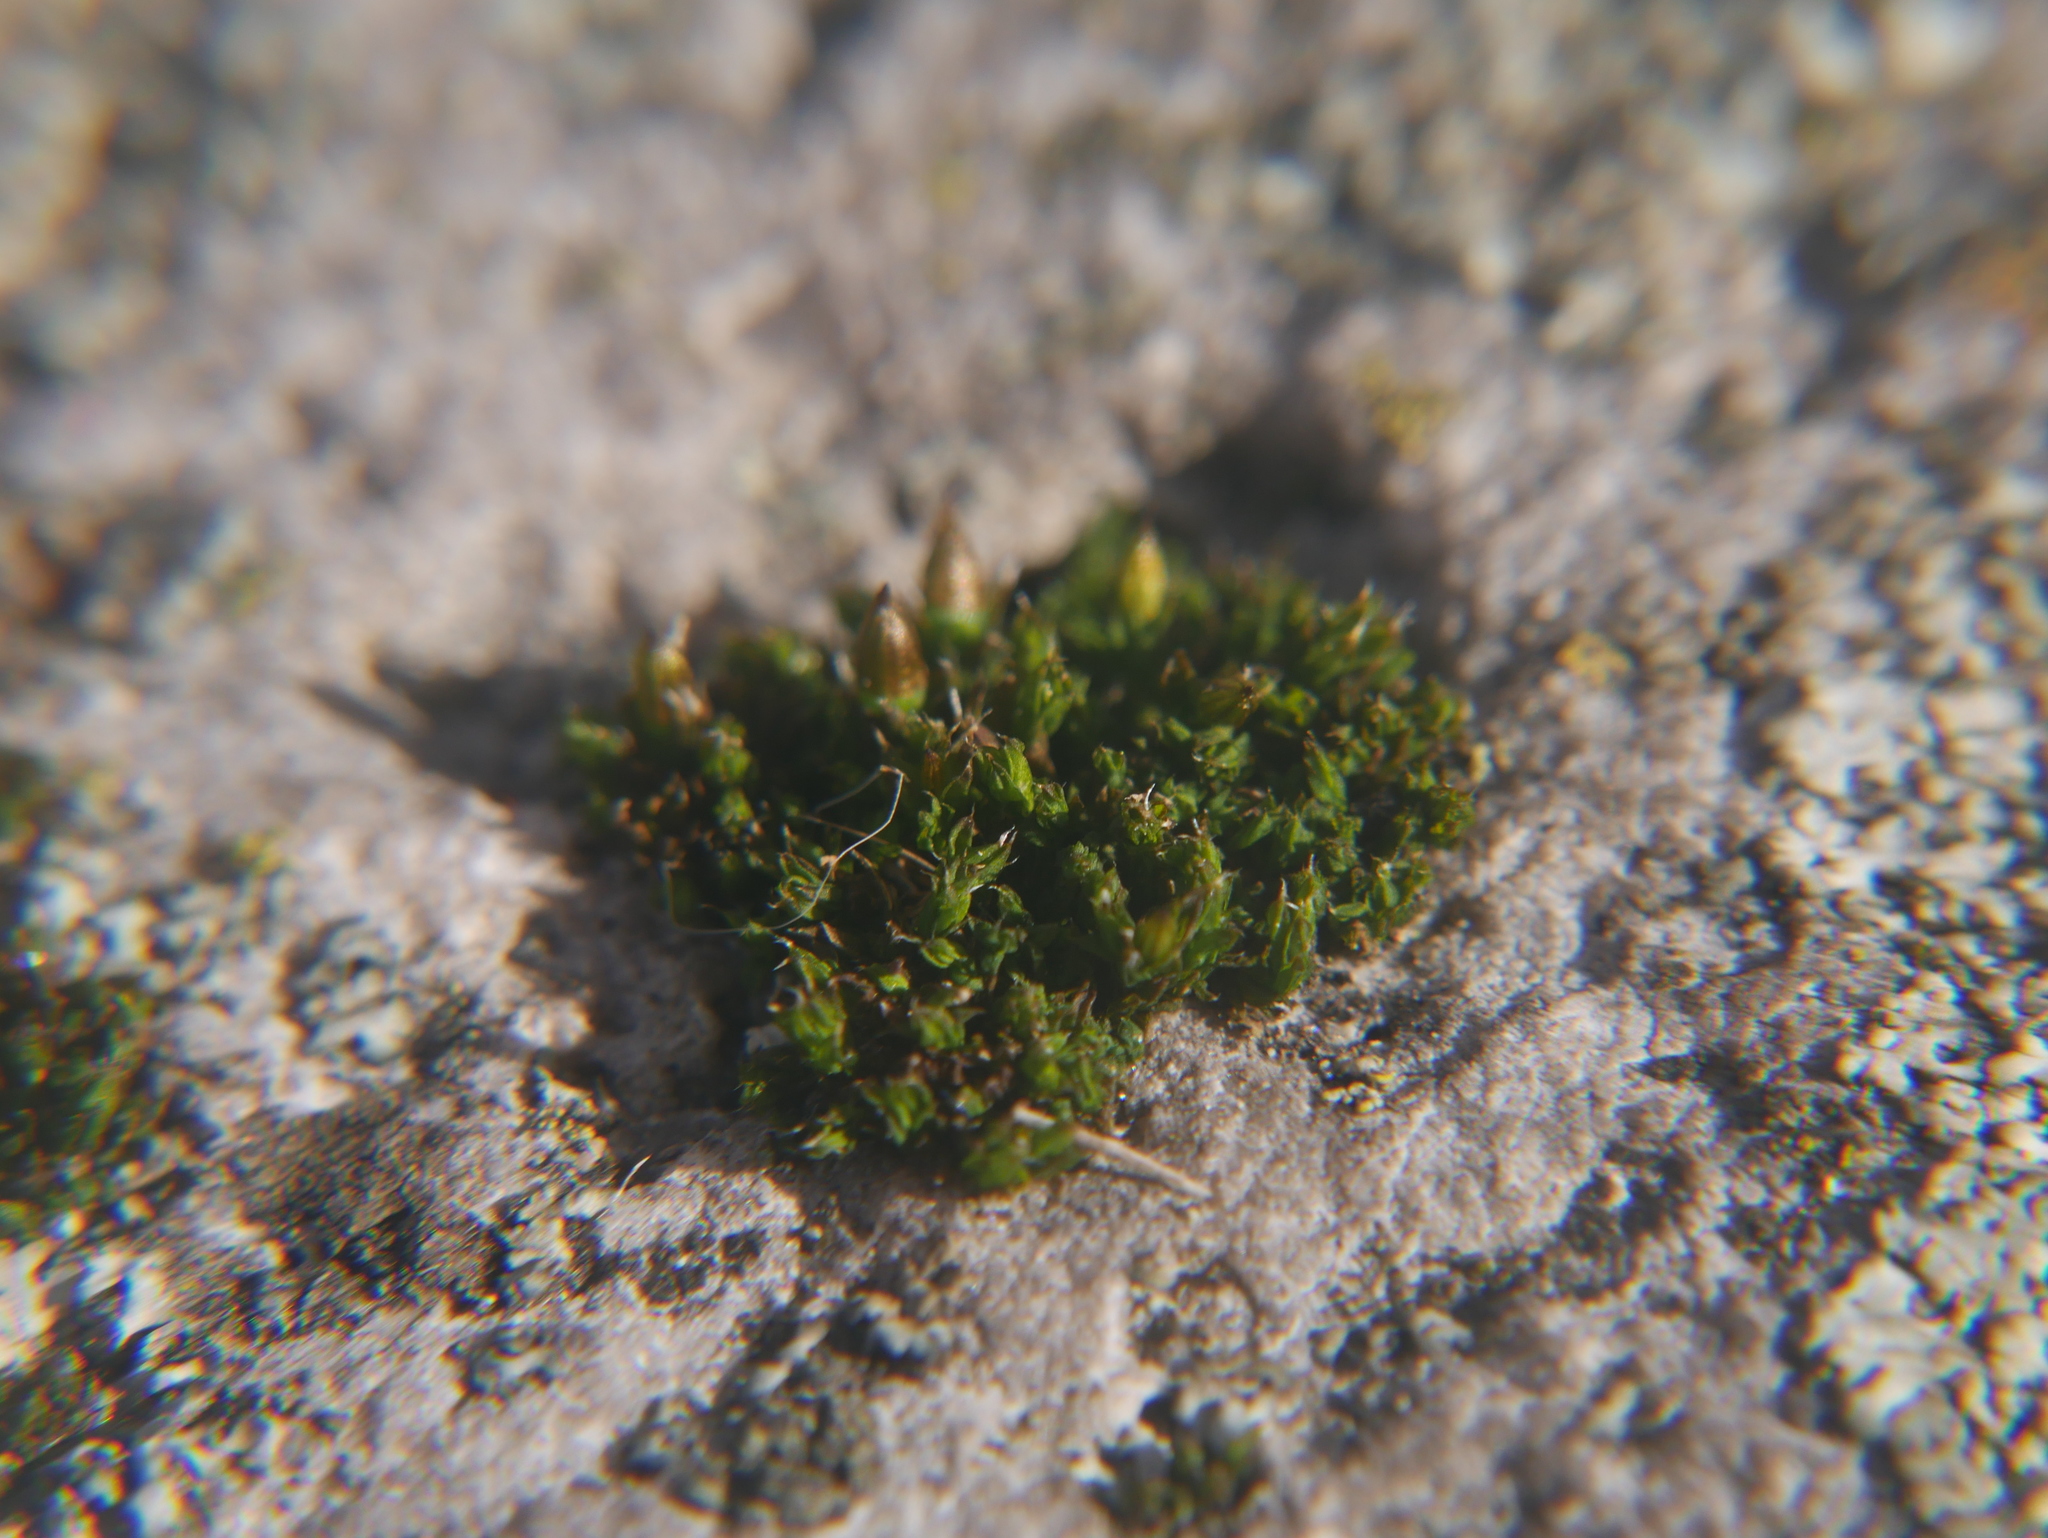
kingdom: Plantae
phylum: Bryophyta
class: Bryopsida
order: Orthotrichales
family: Orthotrichaceae
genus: Orthotrichum
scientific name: Orthotrichum diaphanum
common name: White-tipped bristle-moss
